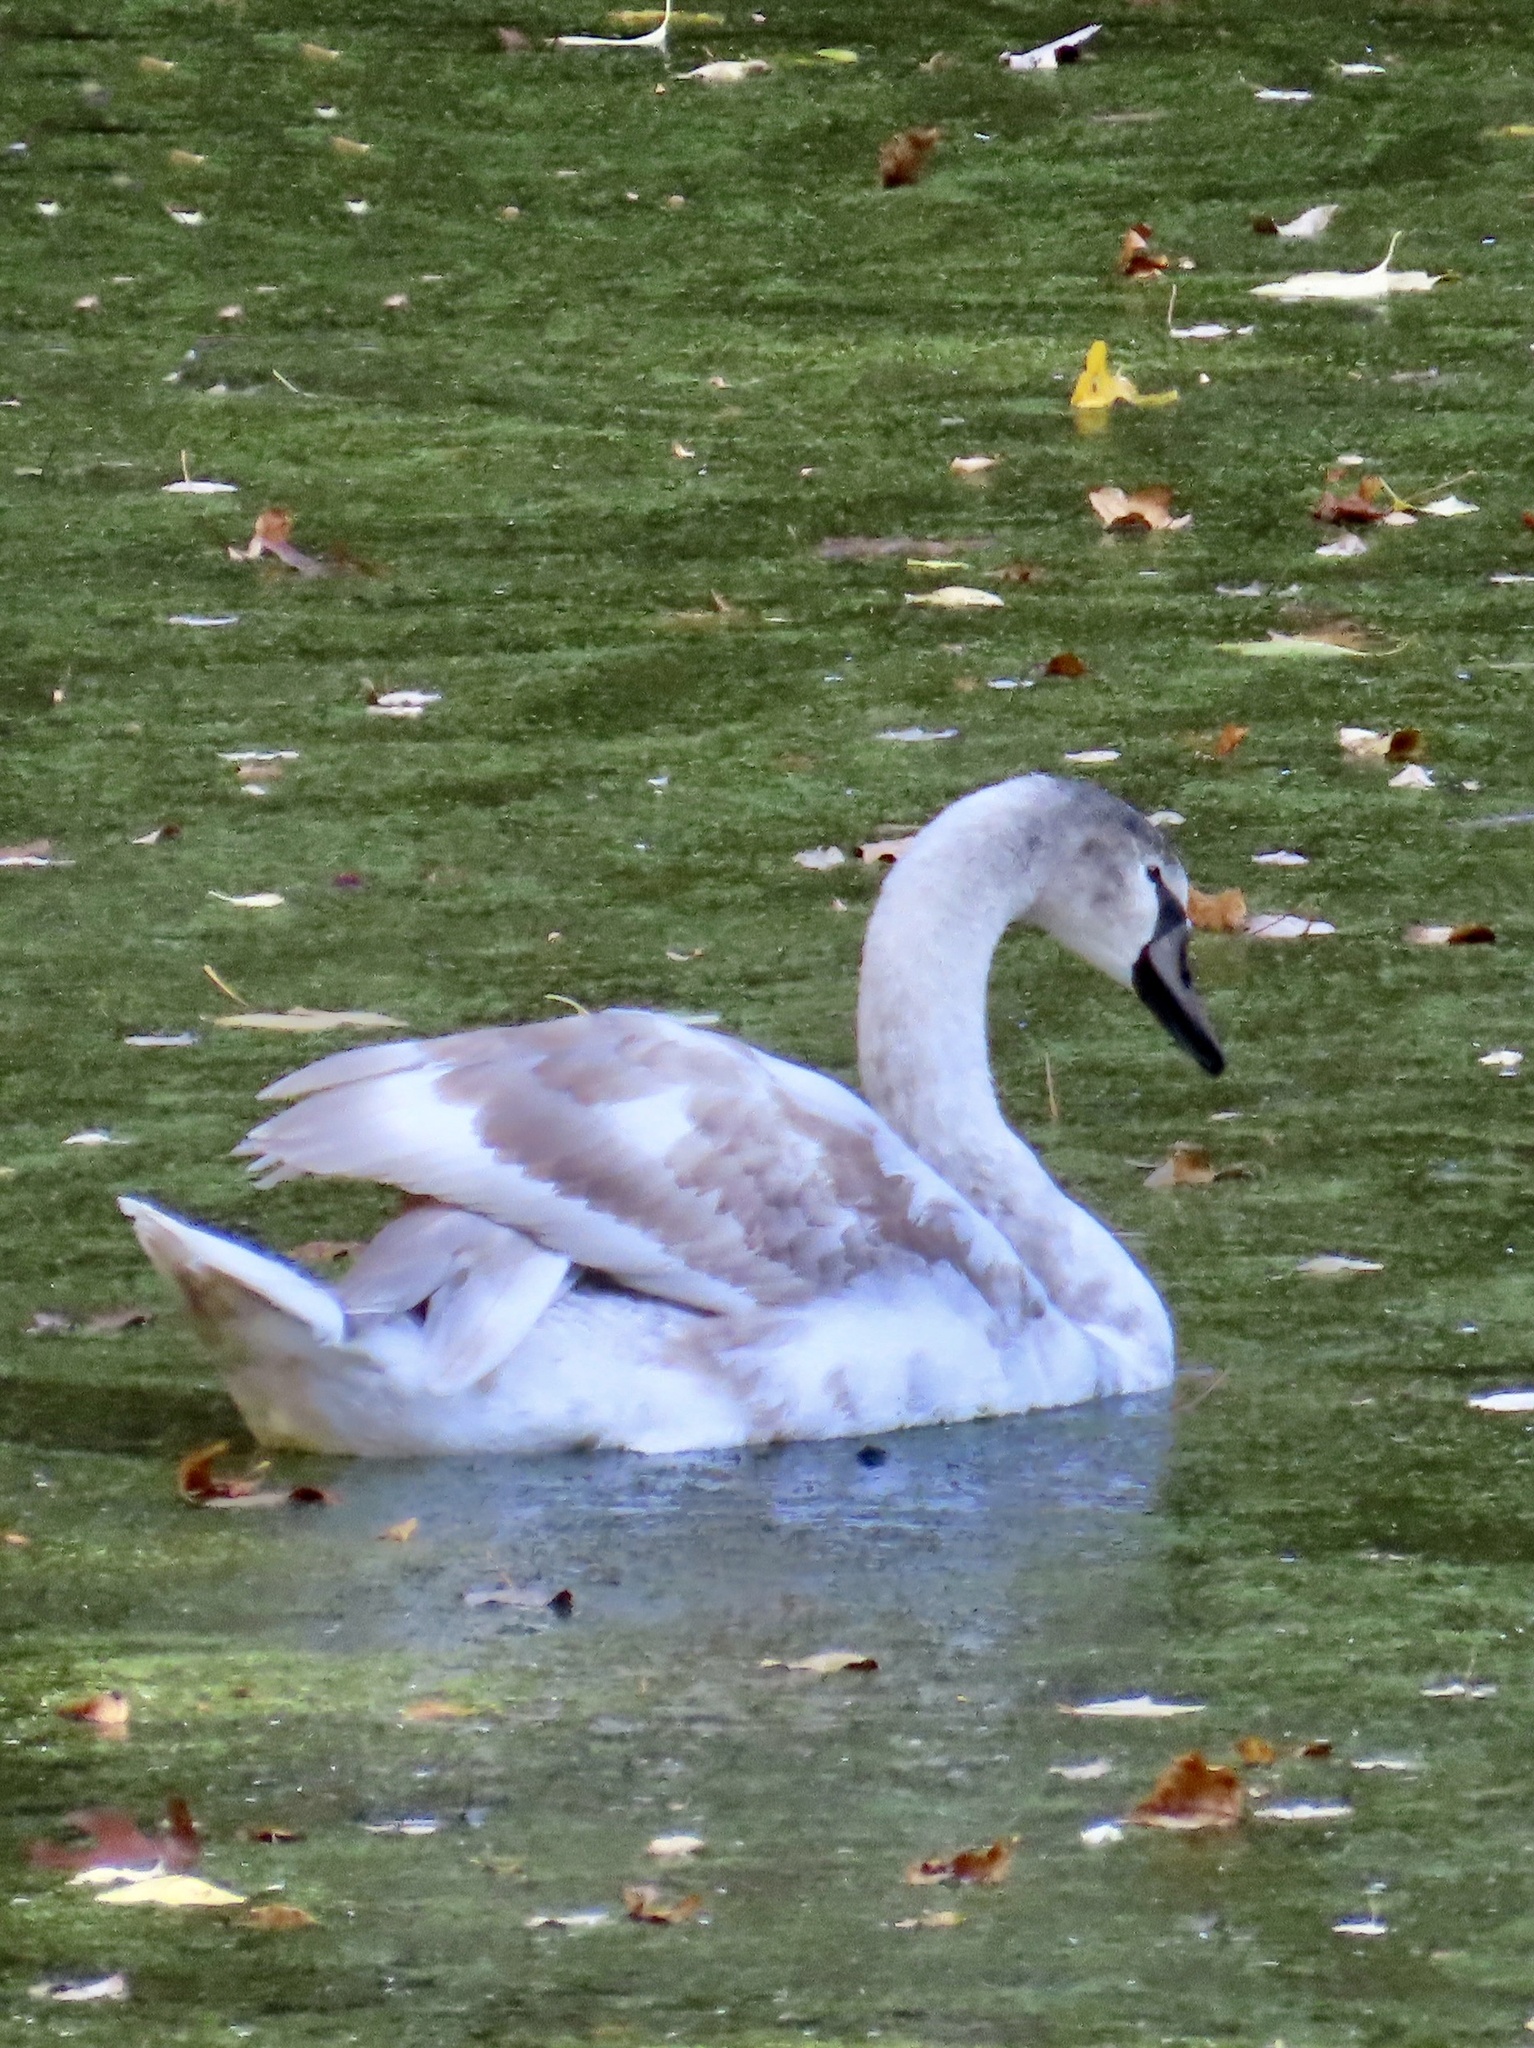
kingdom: Animalia
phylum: Chordata
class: Aves
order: Anseriformes
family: Anatidae
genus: Cygnus
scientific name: Cygnus olor
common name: Mute swan
